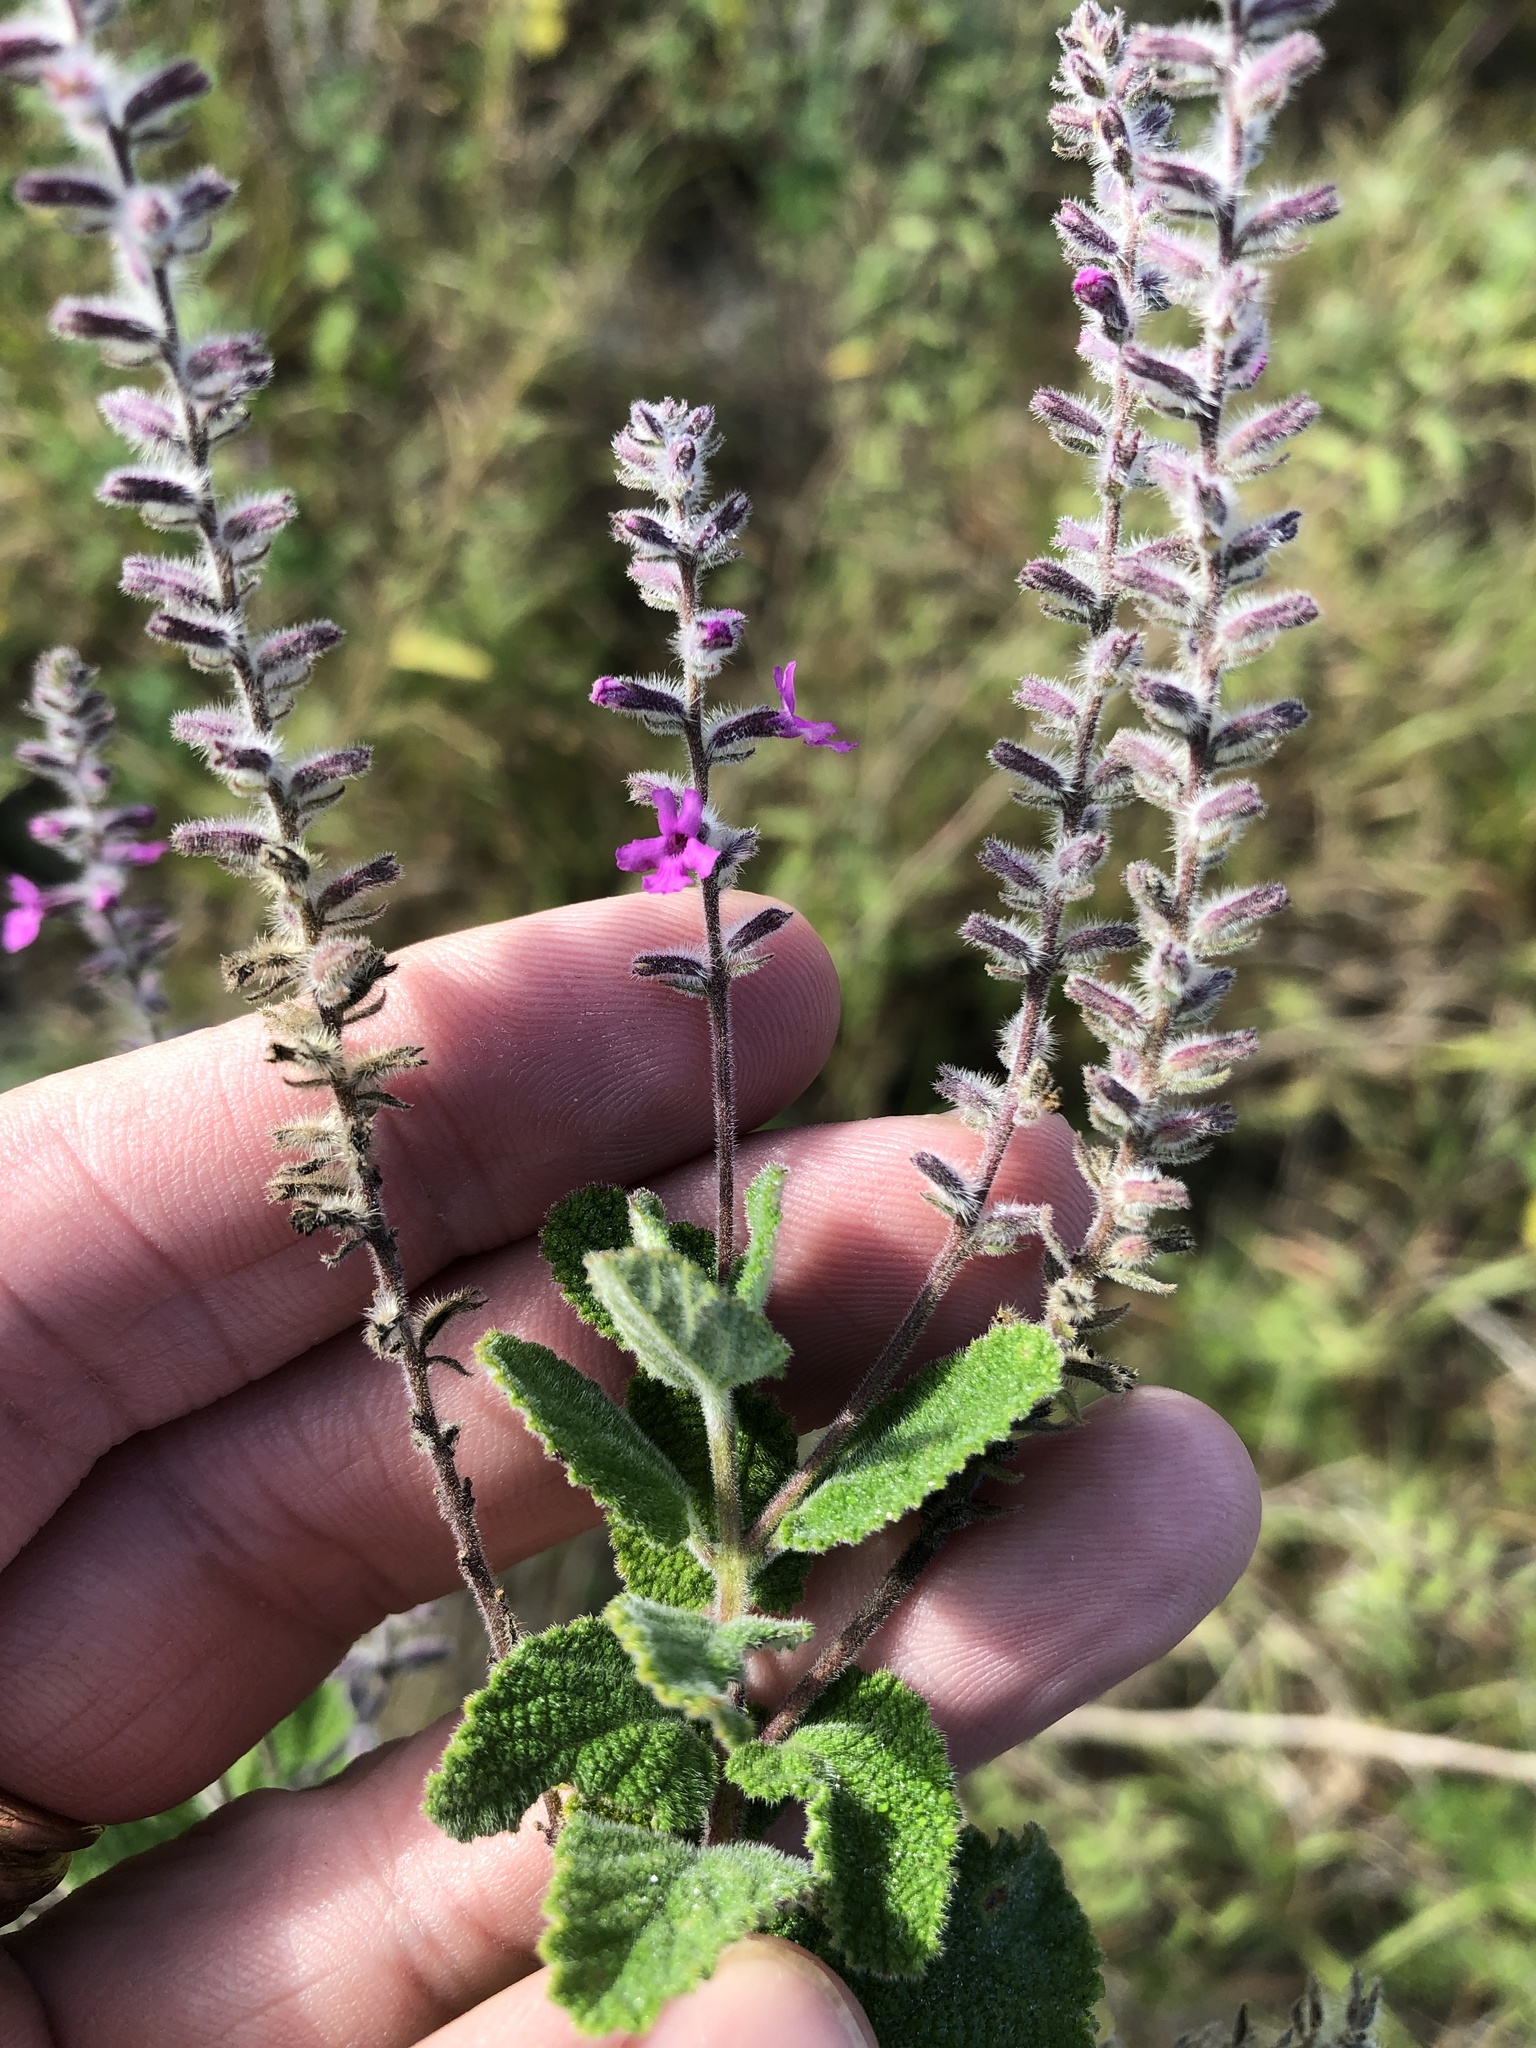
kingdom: Plantae
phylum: Tracheophyta
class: Magnoliopsida
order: Lamiales
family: Verbenaceae
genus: Aloysia
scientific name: Aloysia macrostachya
